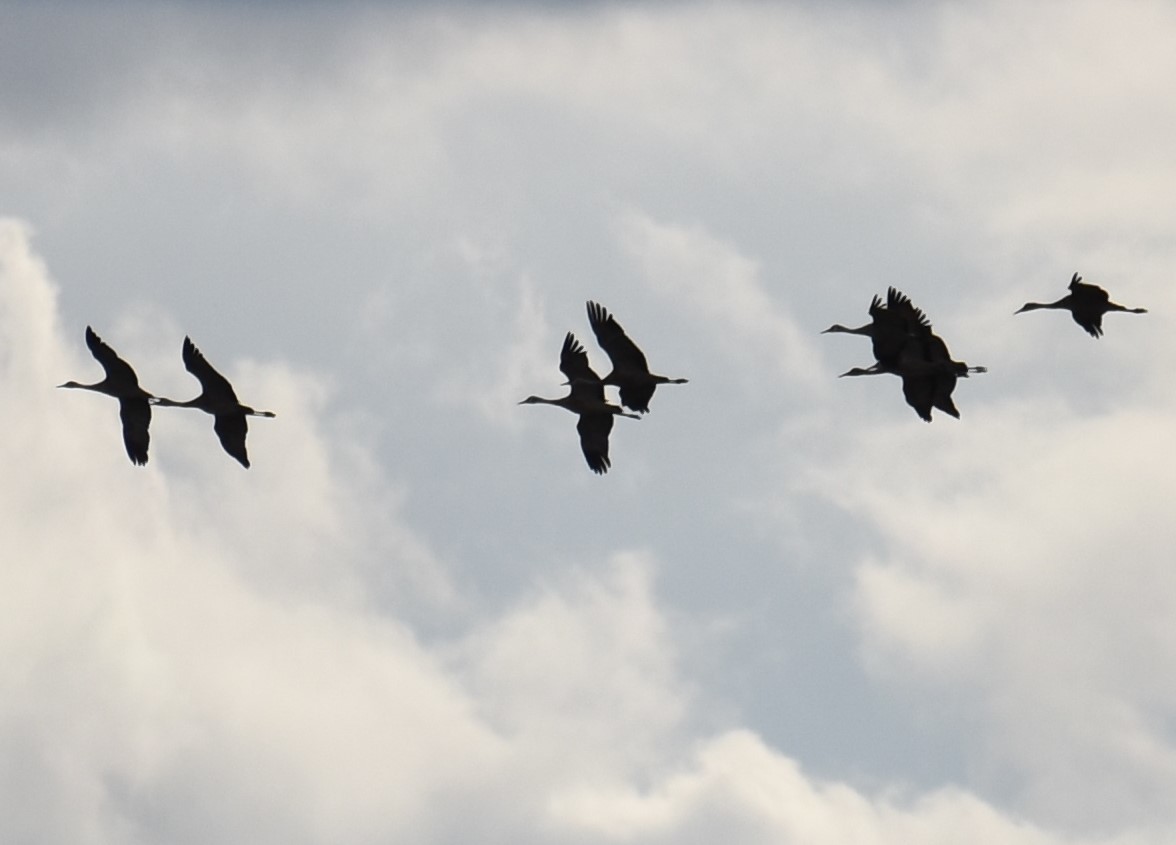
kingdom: Animalia
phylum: Chordata
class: Aves
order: Gruiformes
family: Gruidae
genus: Grus
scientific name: Grus canadensis
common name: Sandhill crane
